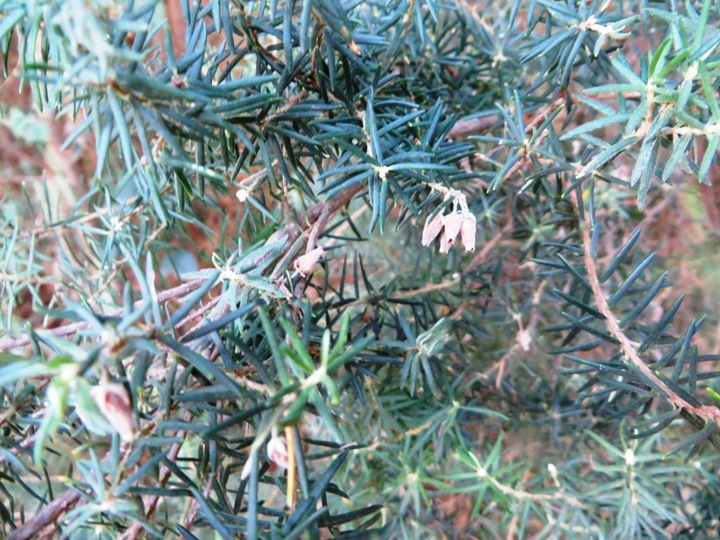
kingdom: Plantae
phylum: Tracheophyta
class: Magnoliopsida
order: Ericales
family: Ericaceae
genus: Erica
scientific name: Erica caffra
